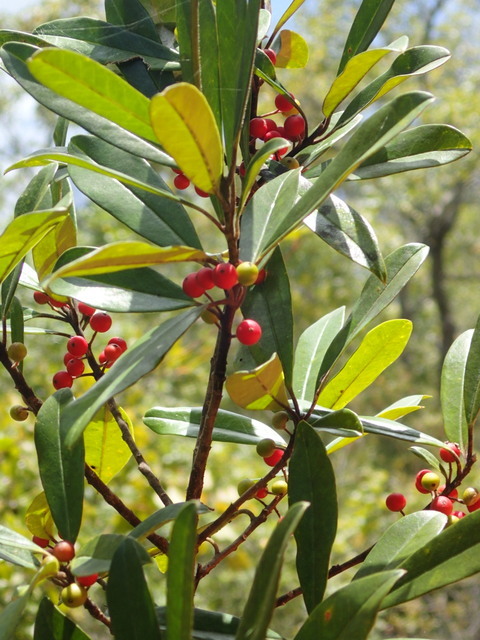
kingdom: Plantae
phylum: Tracheophyta
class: Magnoliopsida
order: Aquifoliales
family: Aquifoliaceae
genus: Ilex
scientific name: Ilex cassine
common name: Dahoon
